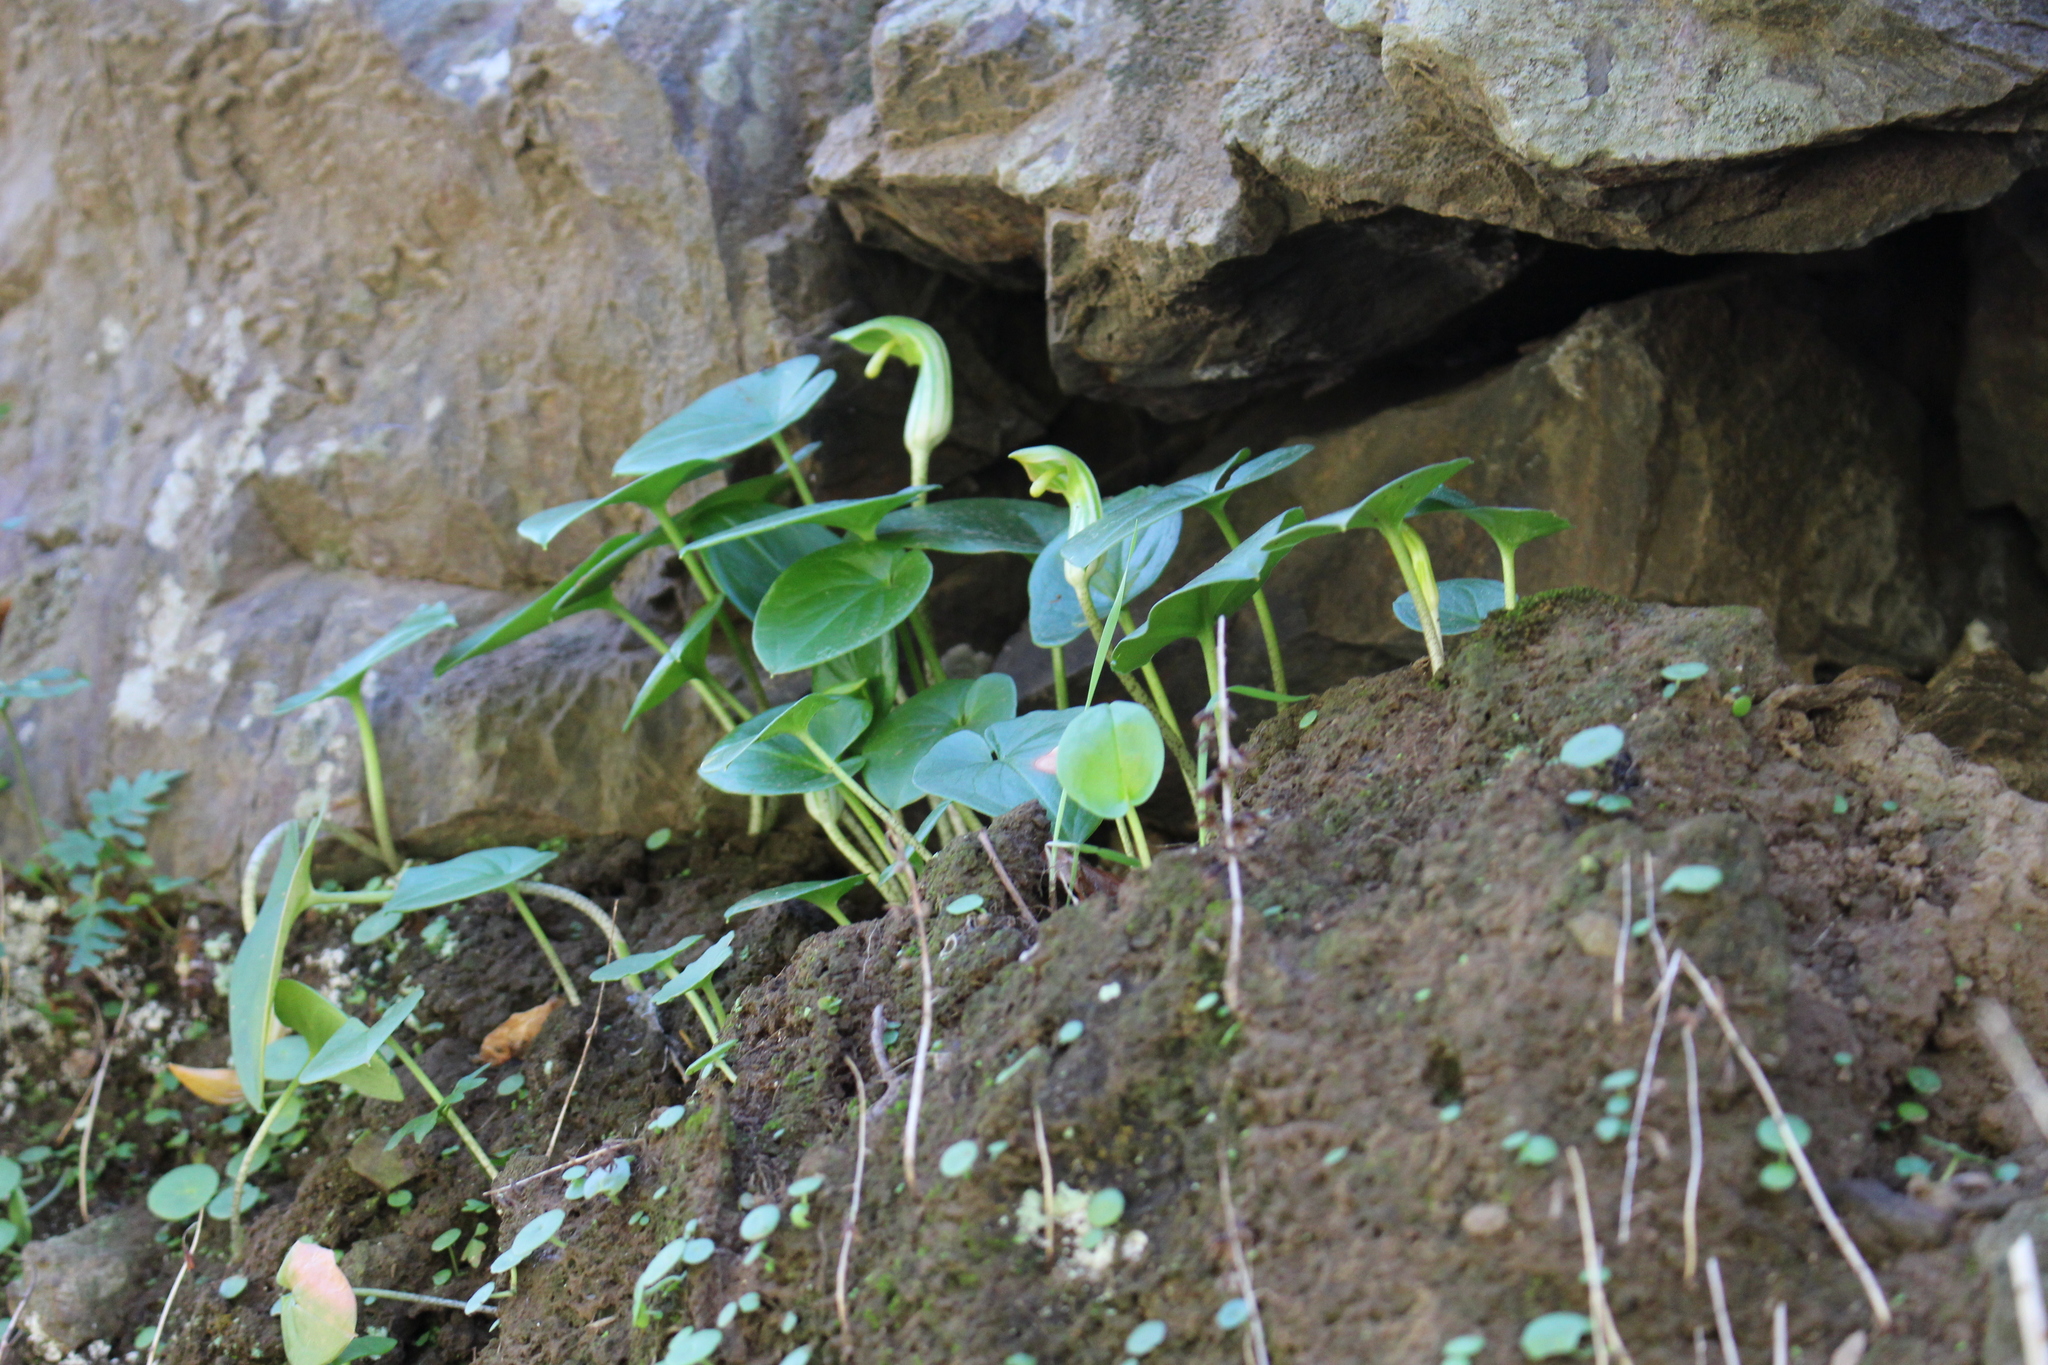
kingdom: Plantae
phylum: Tracheophyta
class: Liliopsida
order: Alismatales
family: Araceae
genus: Arisarum
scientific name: Arisarum vulgare
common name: Common arisarum
